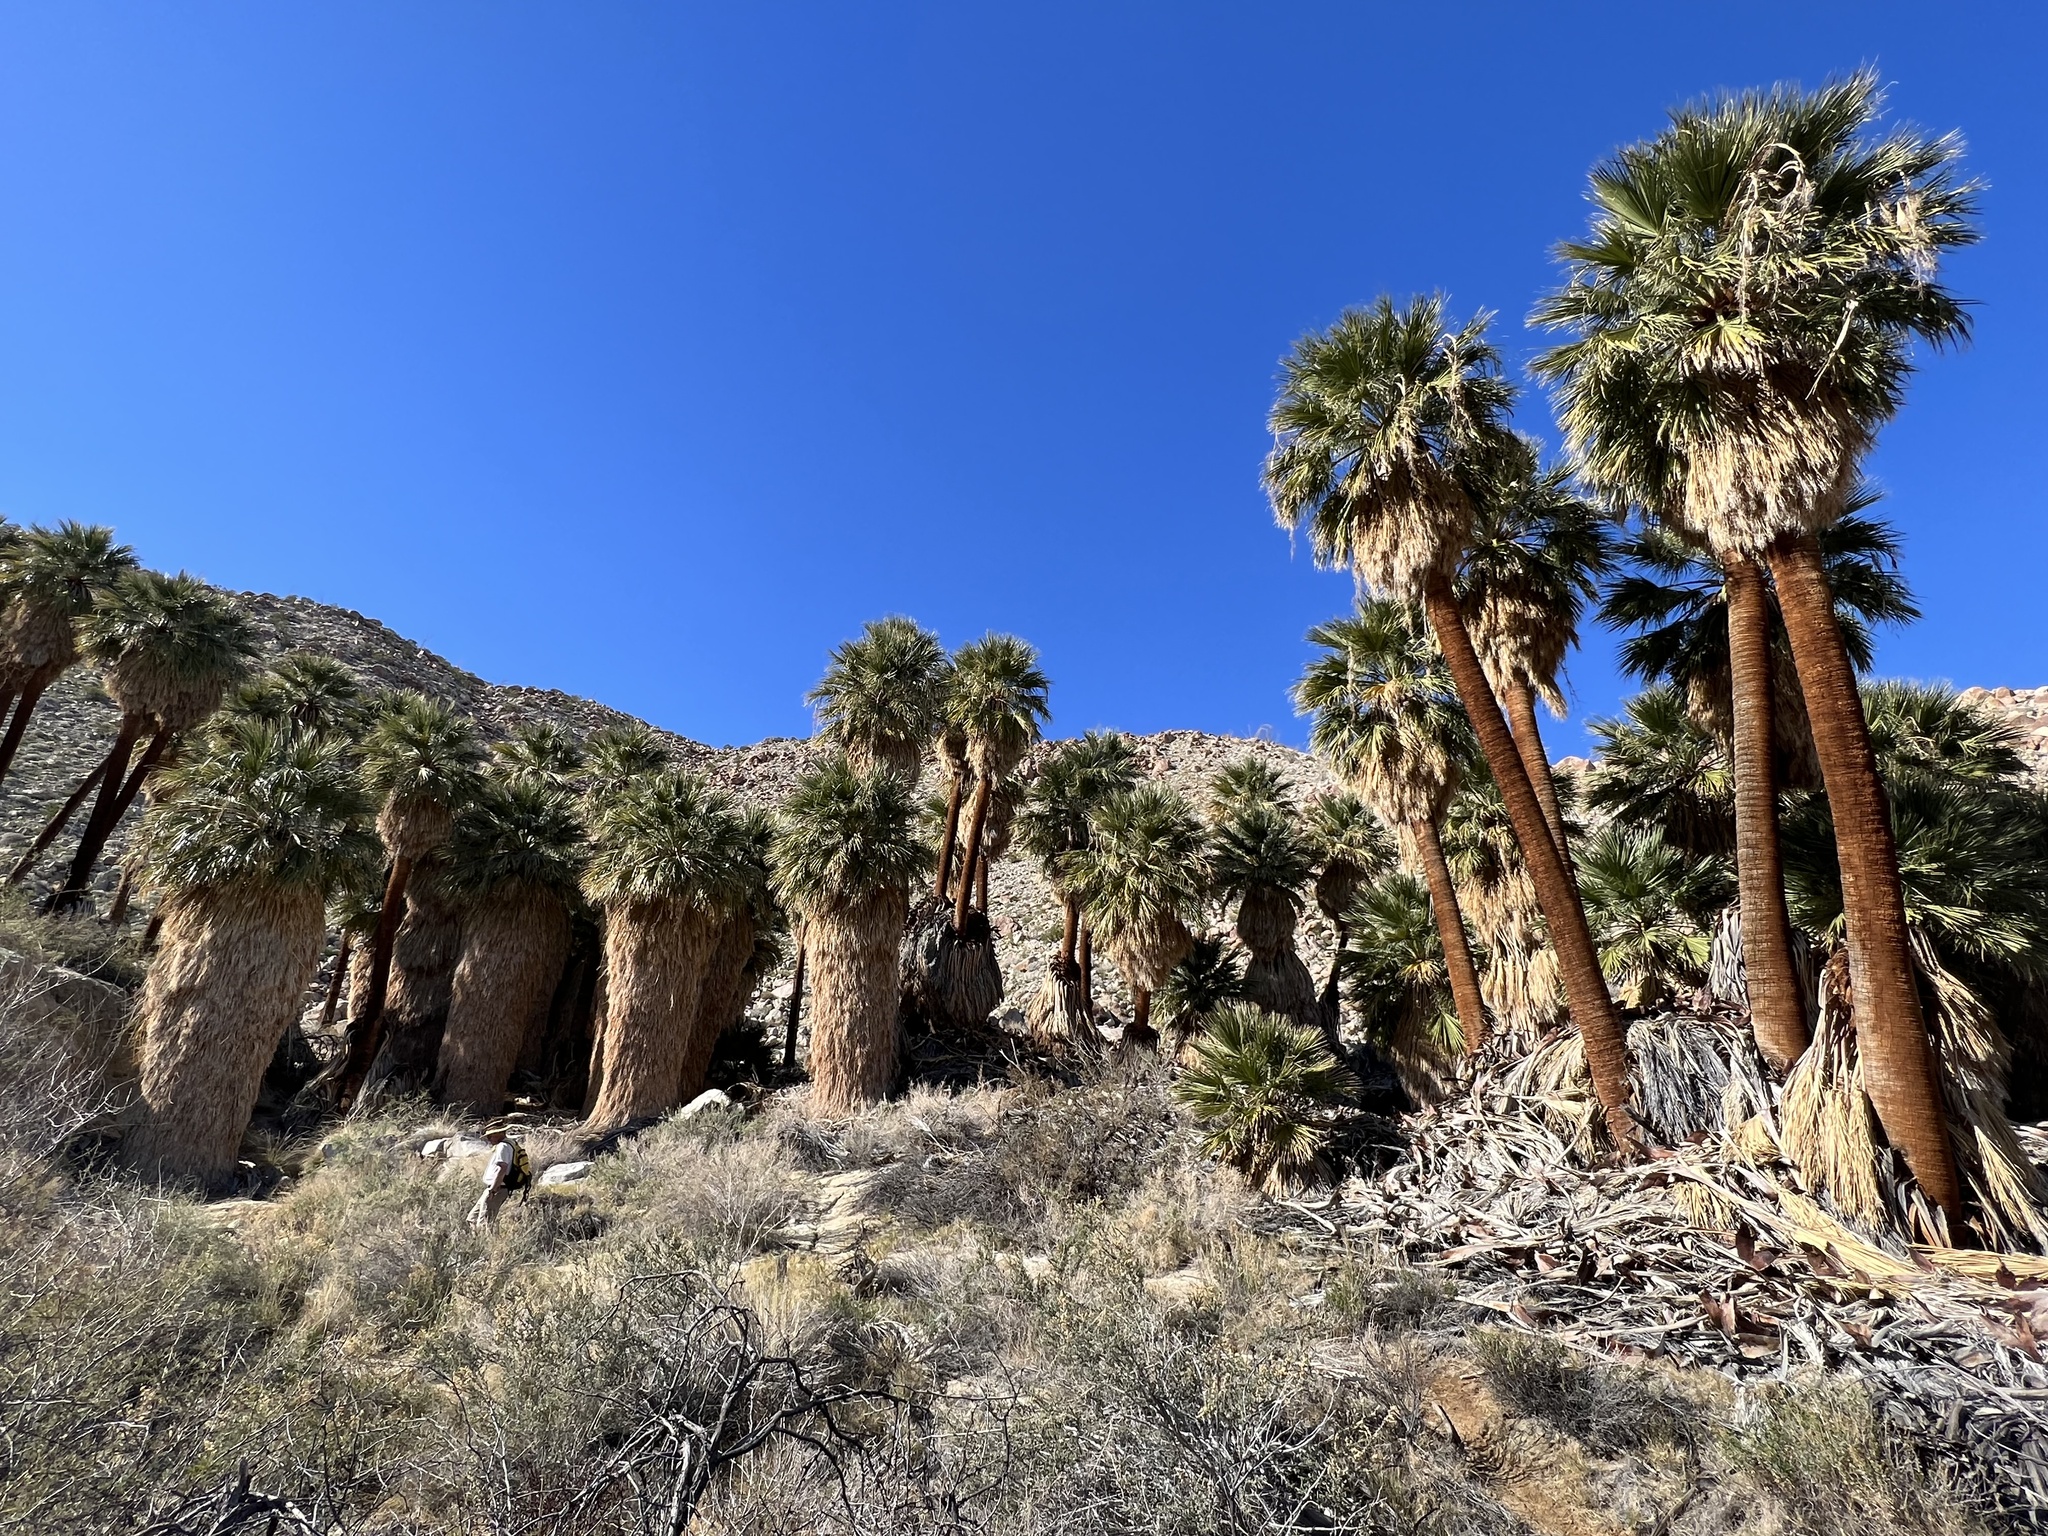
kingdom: Plantae
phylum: Tracheophyta
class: Liliopsida
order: Arecales
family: Arecaceae
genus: Washingtonia
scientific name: Washingtonia filifera
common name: California fan palm
